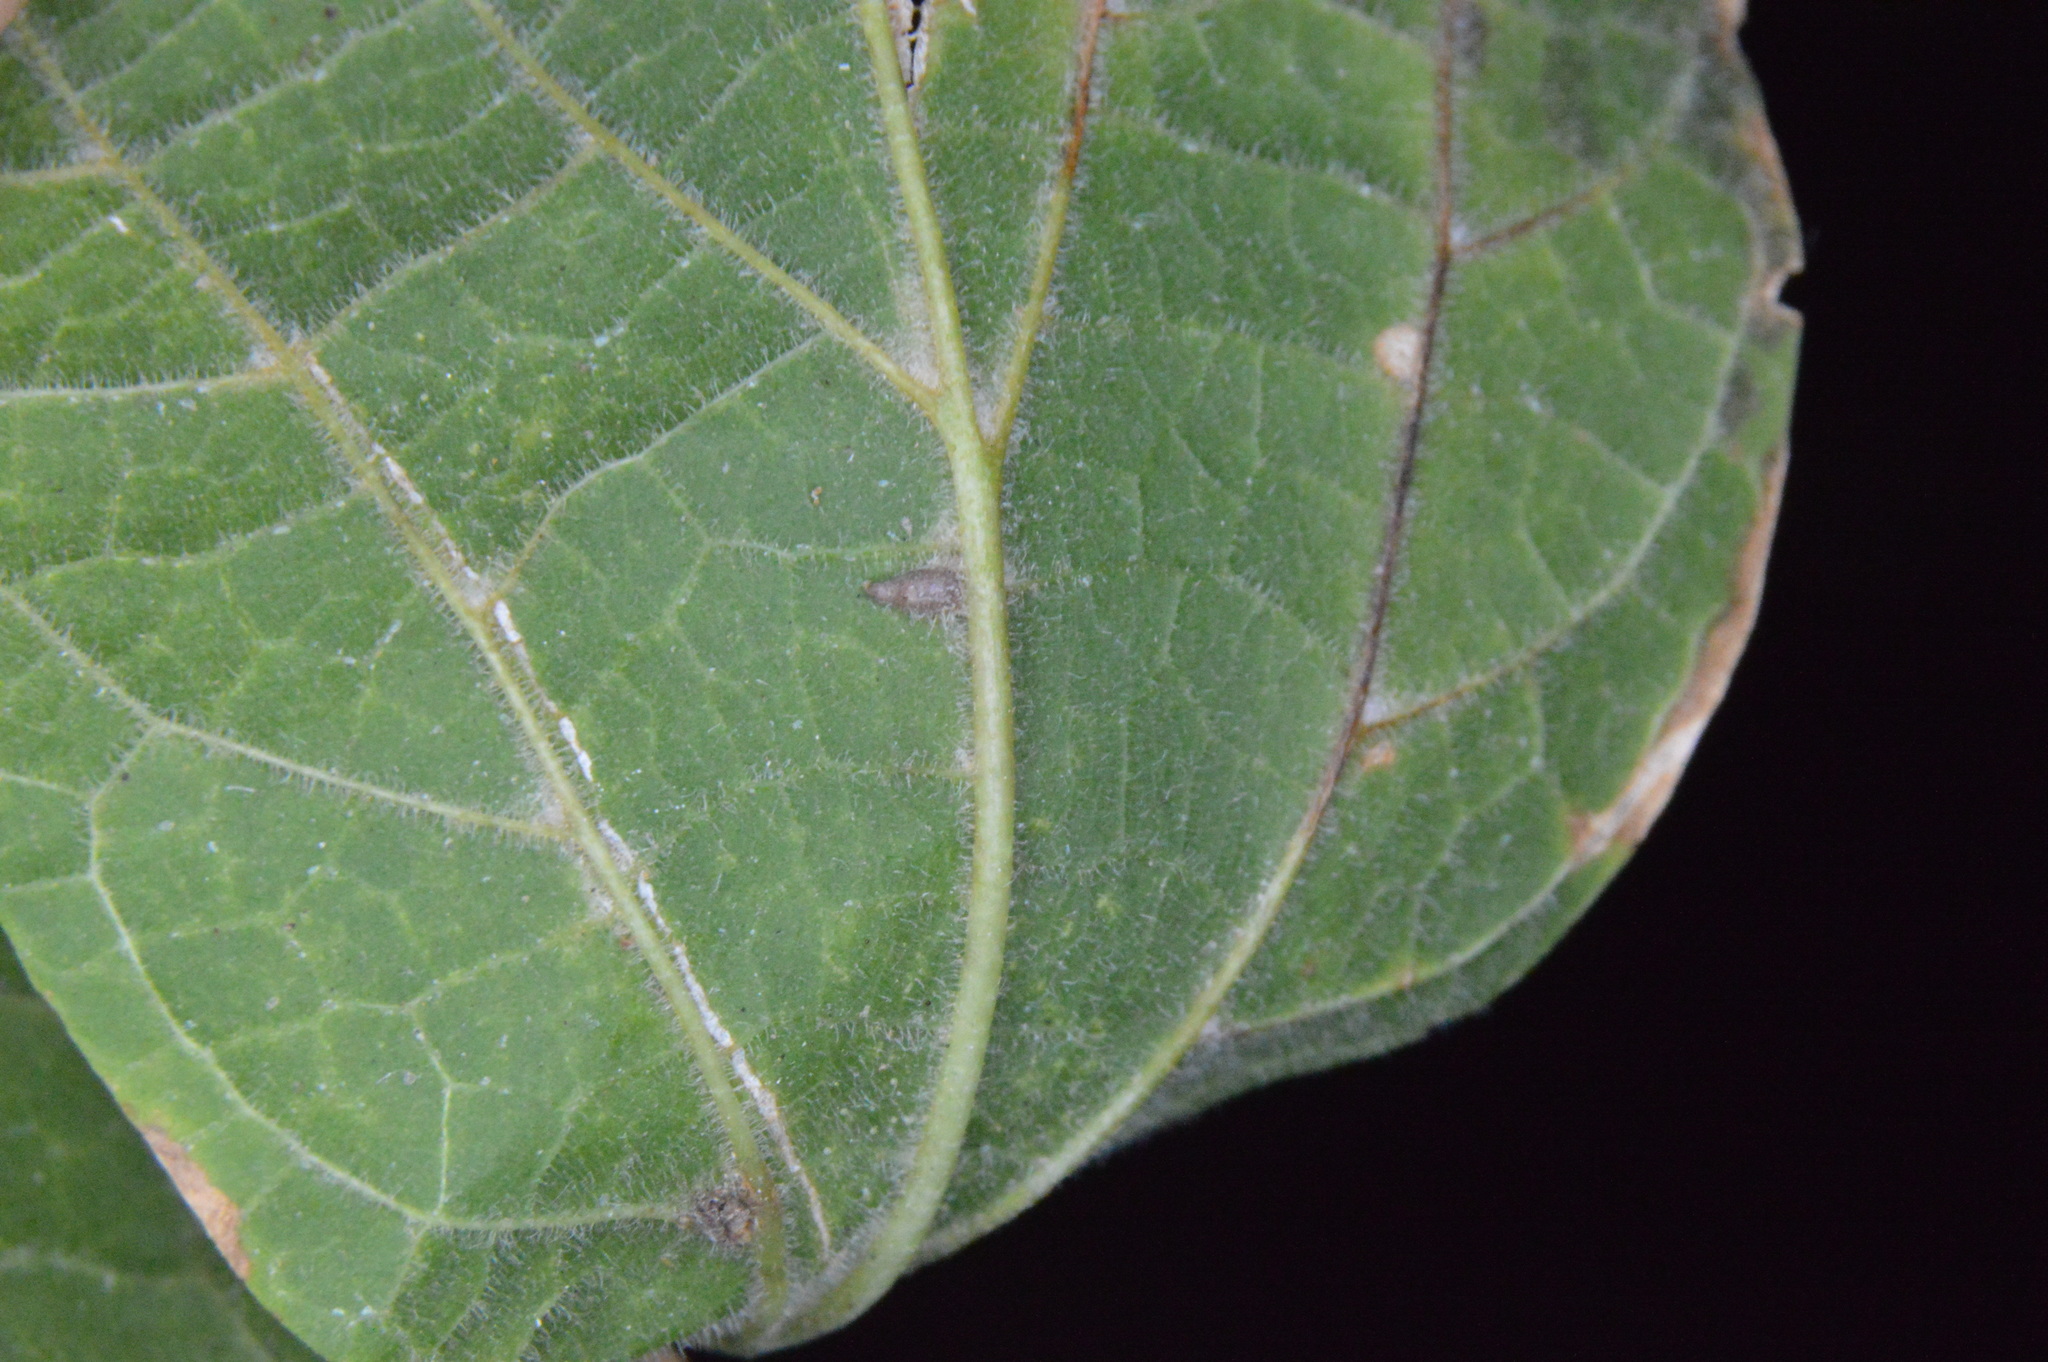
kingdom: Animalia
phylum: Arthropoda
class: Insecta
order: Diptera
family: Cecidomyiidae
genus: Celticecis
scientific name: Celticecis supina
